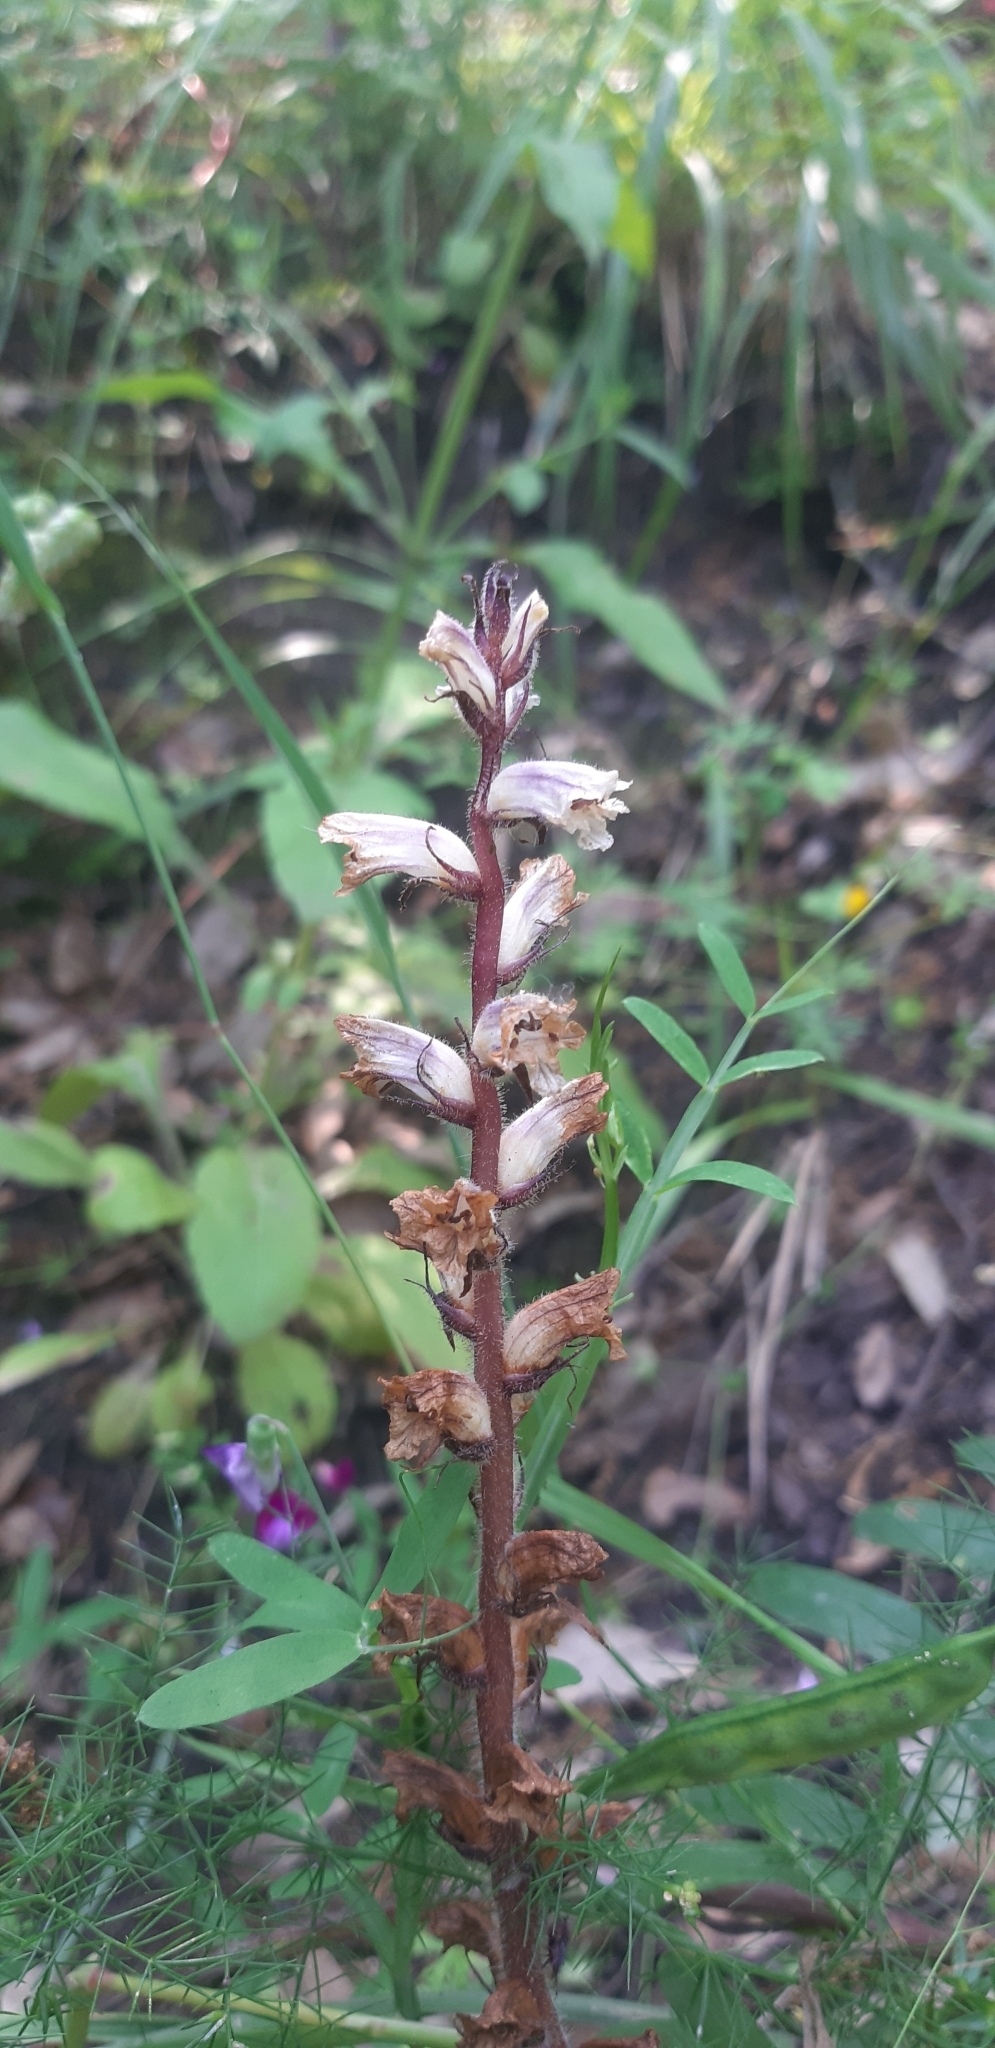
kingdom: Plantae
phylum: Tracheophyta
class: Magnoliopsida
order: Lamiales
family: Orobanchaceae
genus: Orobanche
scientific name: Orobanche minor
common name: Common broomrape
